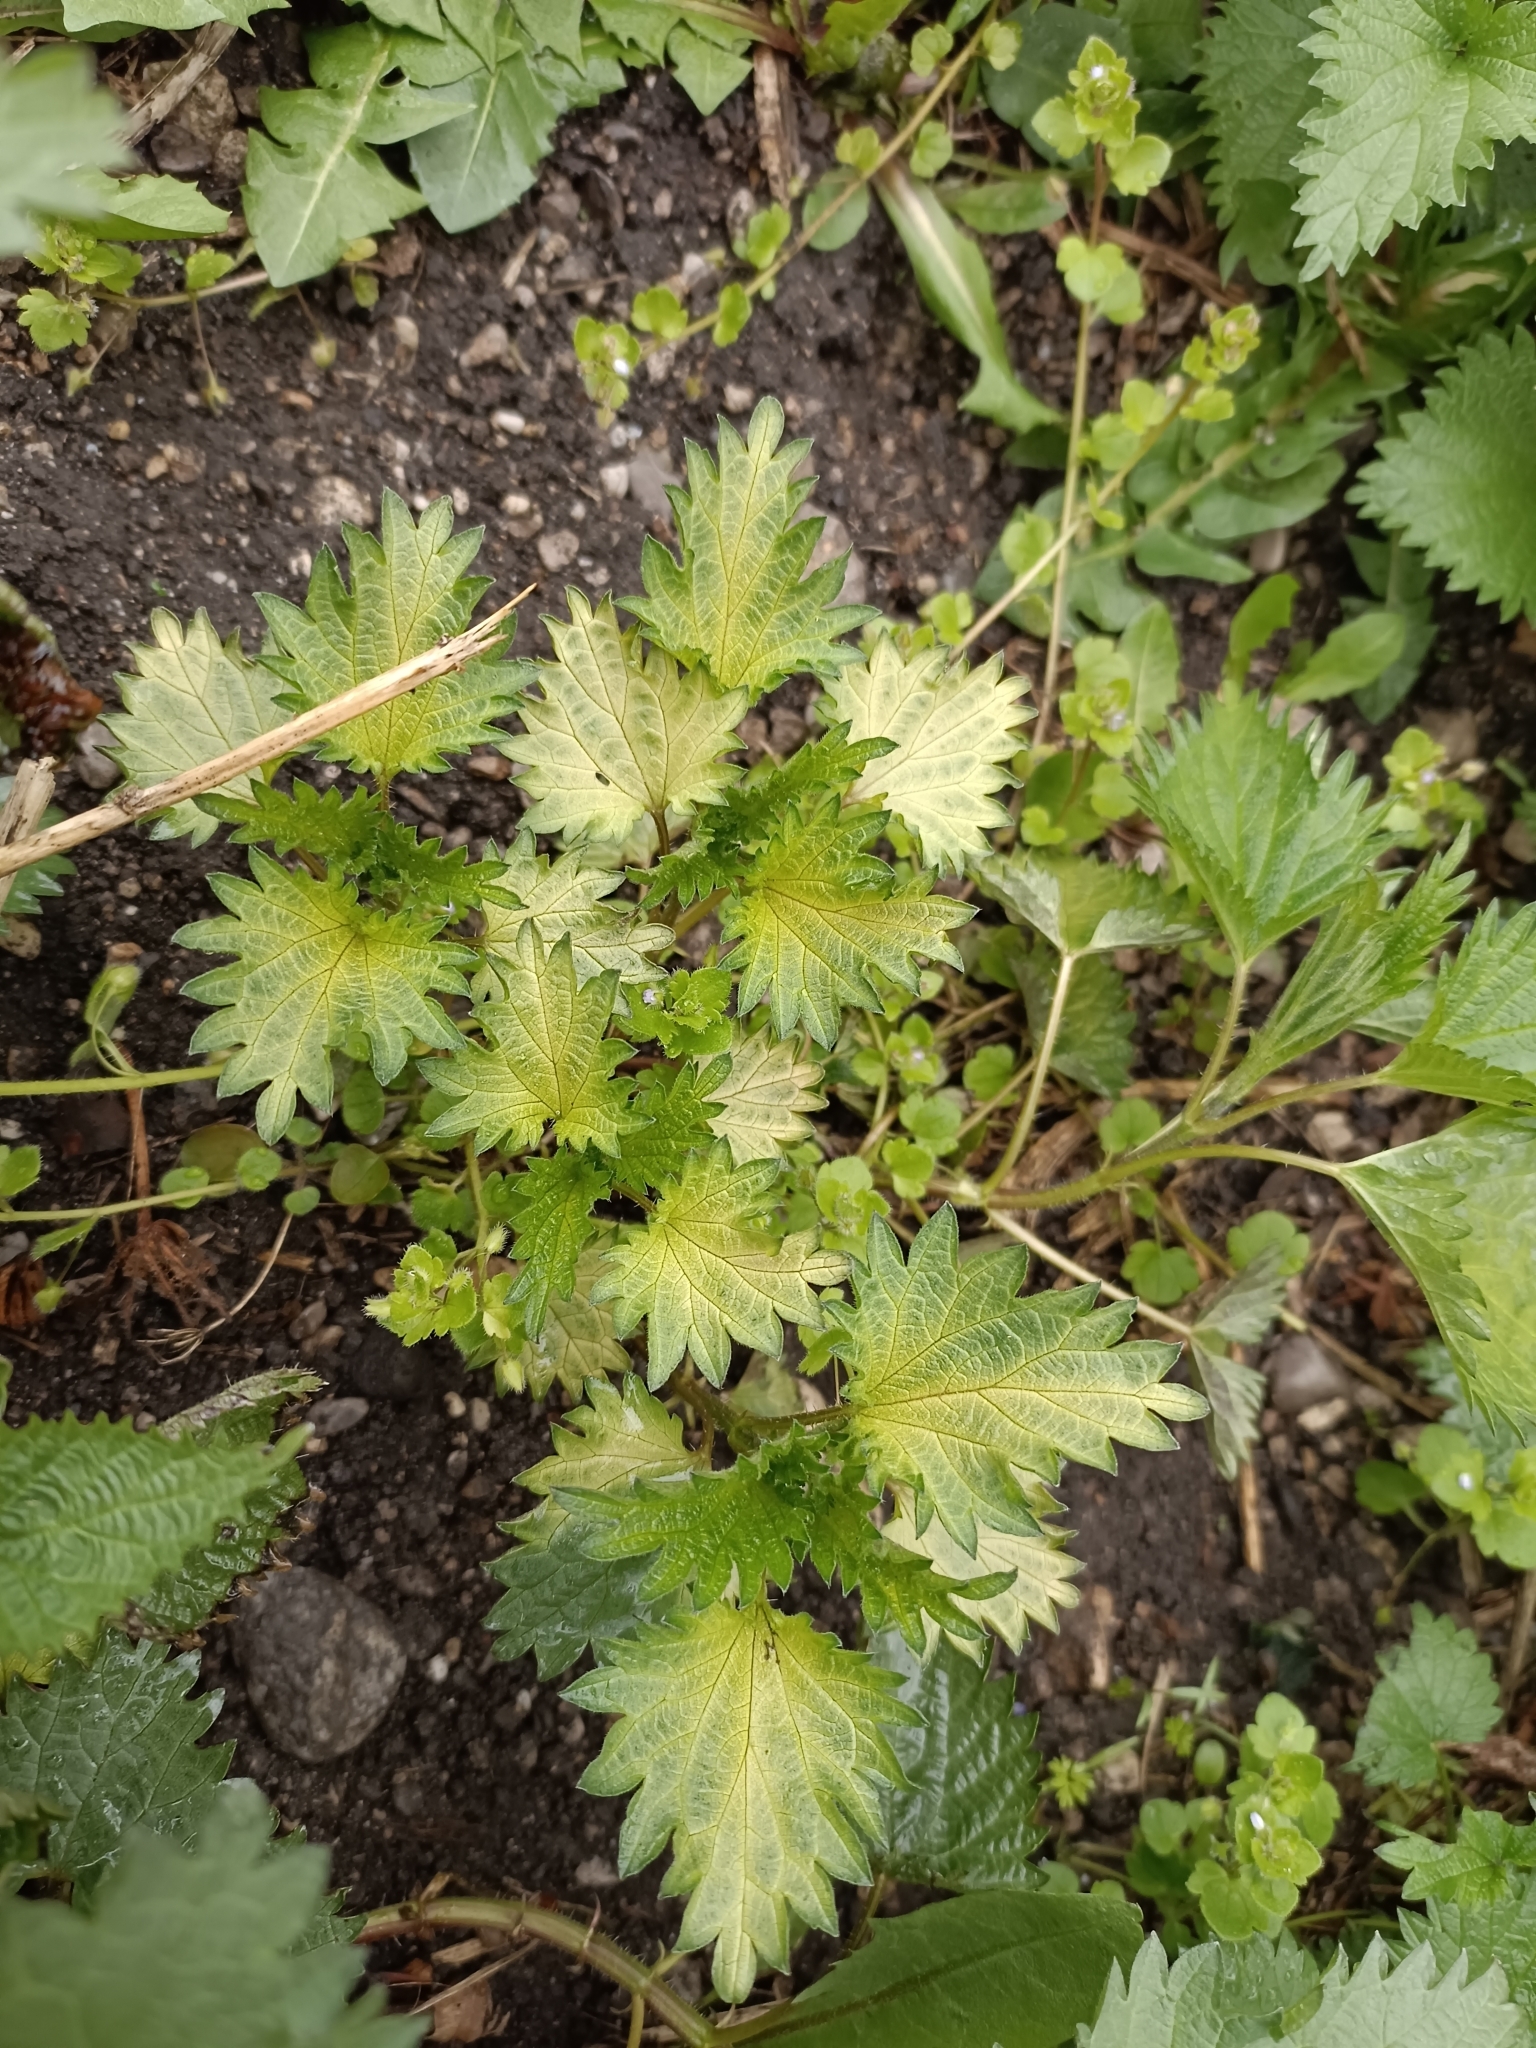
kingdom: Plantae
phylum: Tracheophyta
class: Magnoliopsida
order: Rosales
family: Urticaceae
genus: Urtica
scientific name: Urtica dioica
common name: Common nettle
